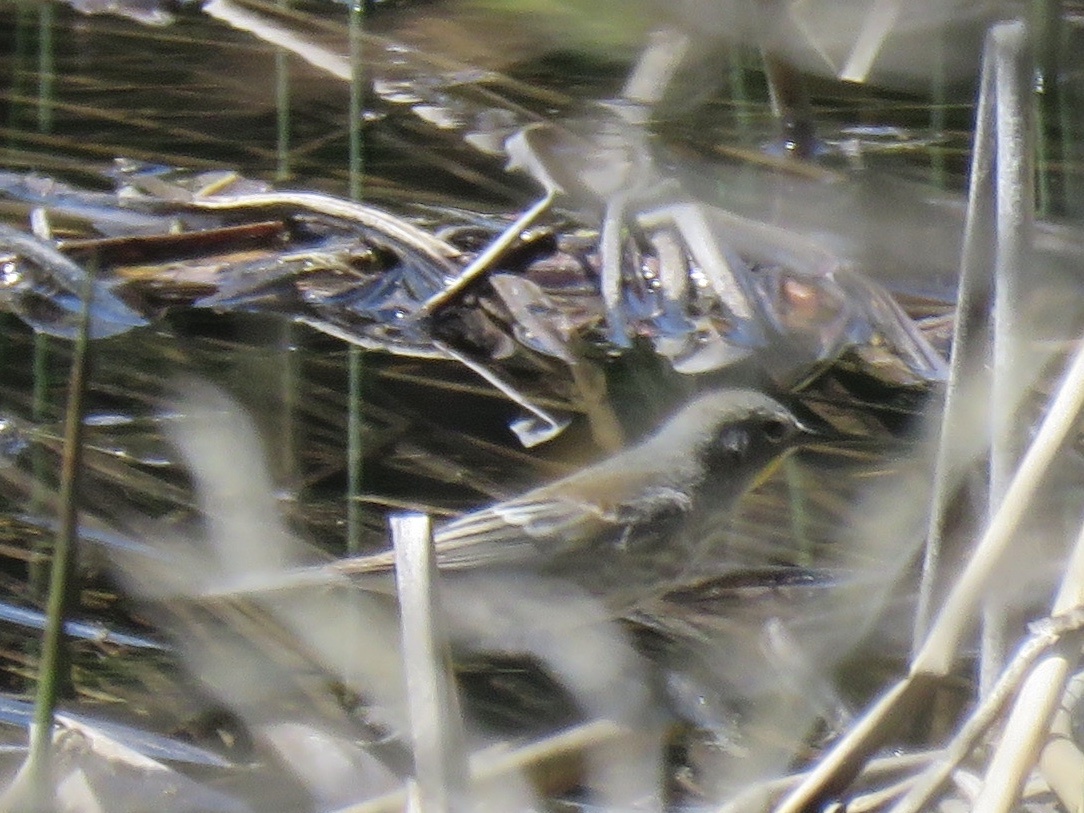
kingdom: Animalia
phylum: Chordata
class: Aves
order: Passeriformes
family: Parulidae
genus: Setophaga
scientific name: Setophaga coronata
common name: Myrtle warbler
